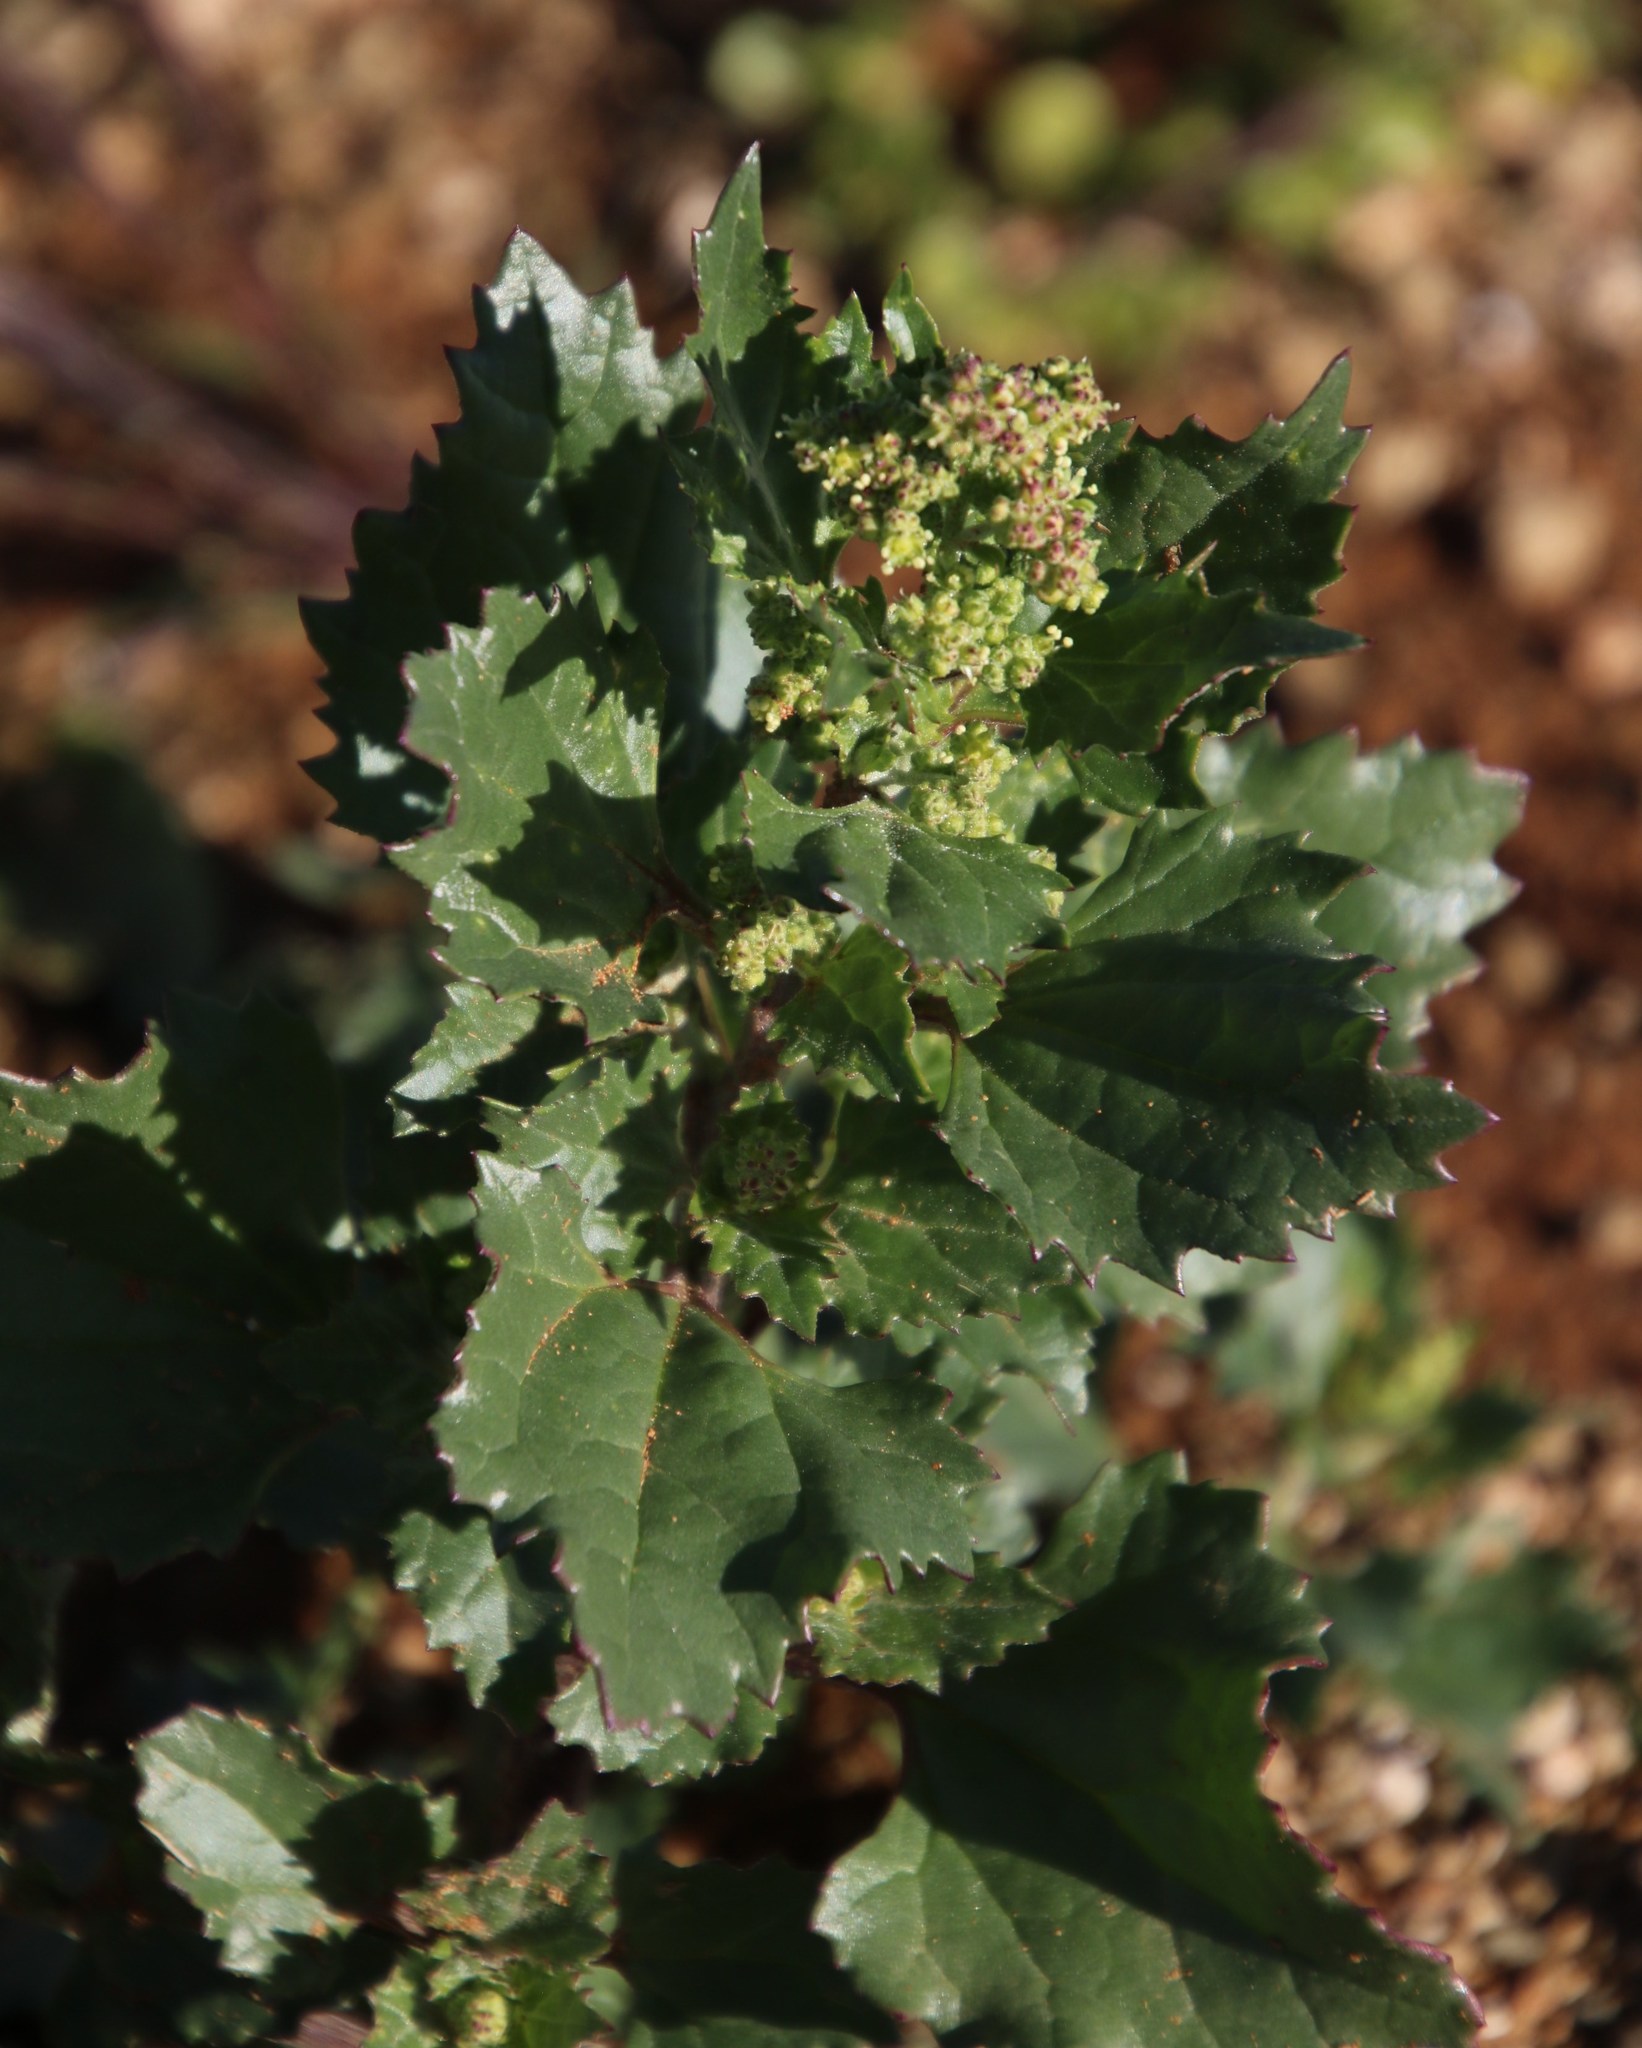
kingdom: Plantae
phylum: Tracheophyta
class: Magnoliopsida
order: Caryophyllales
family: Amaranthaceae
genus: Chenopodiastrum
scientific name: Chenopodiastrum murale
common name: Sowbane
